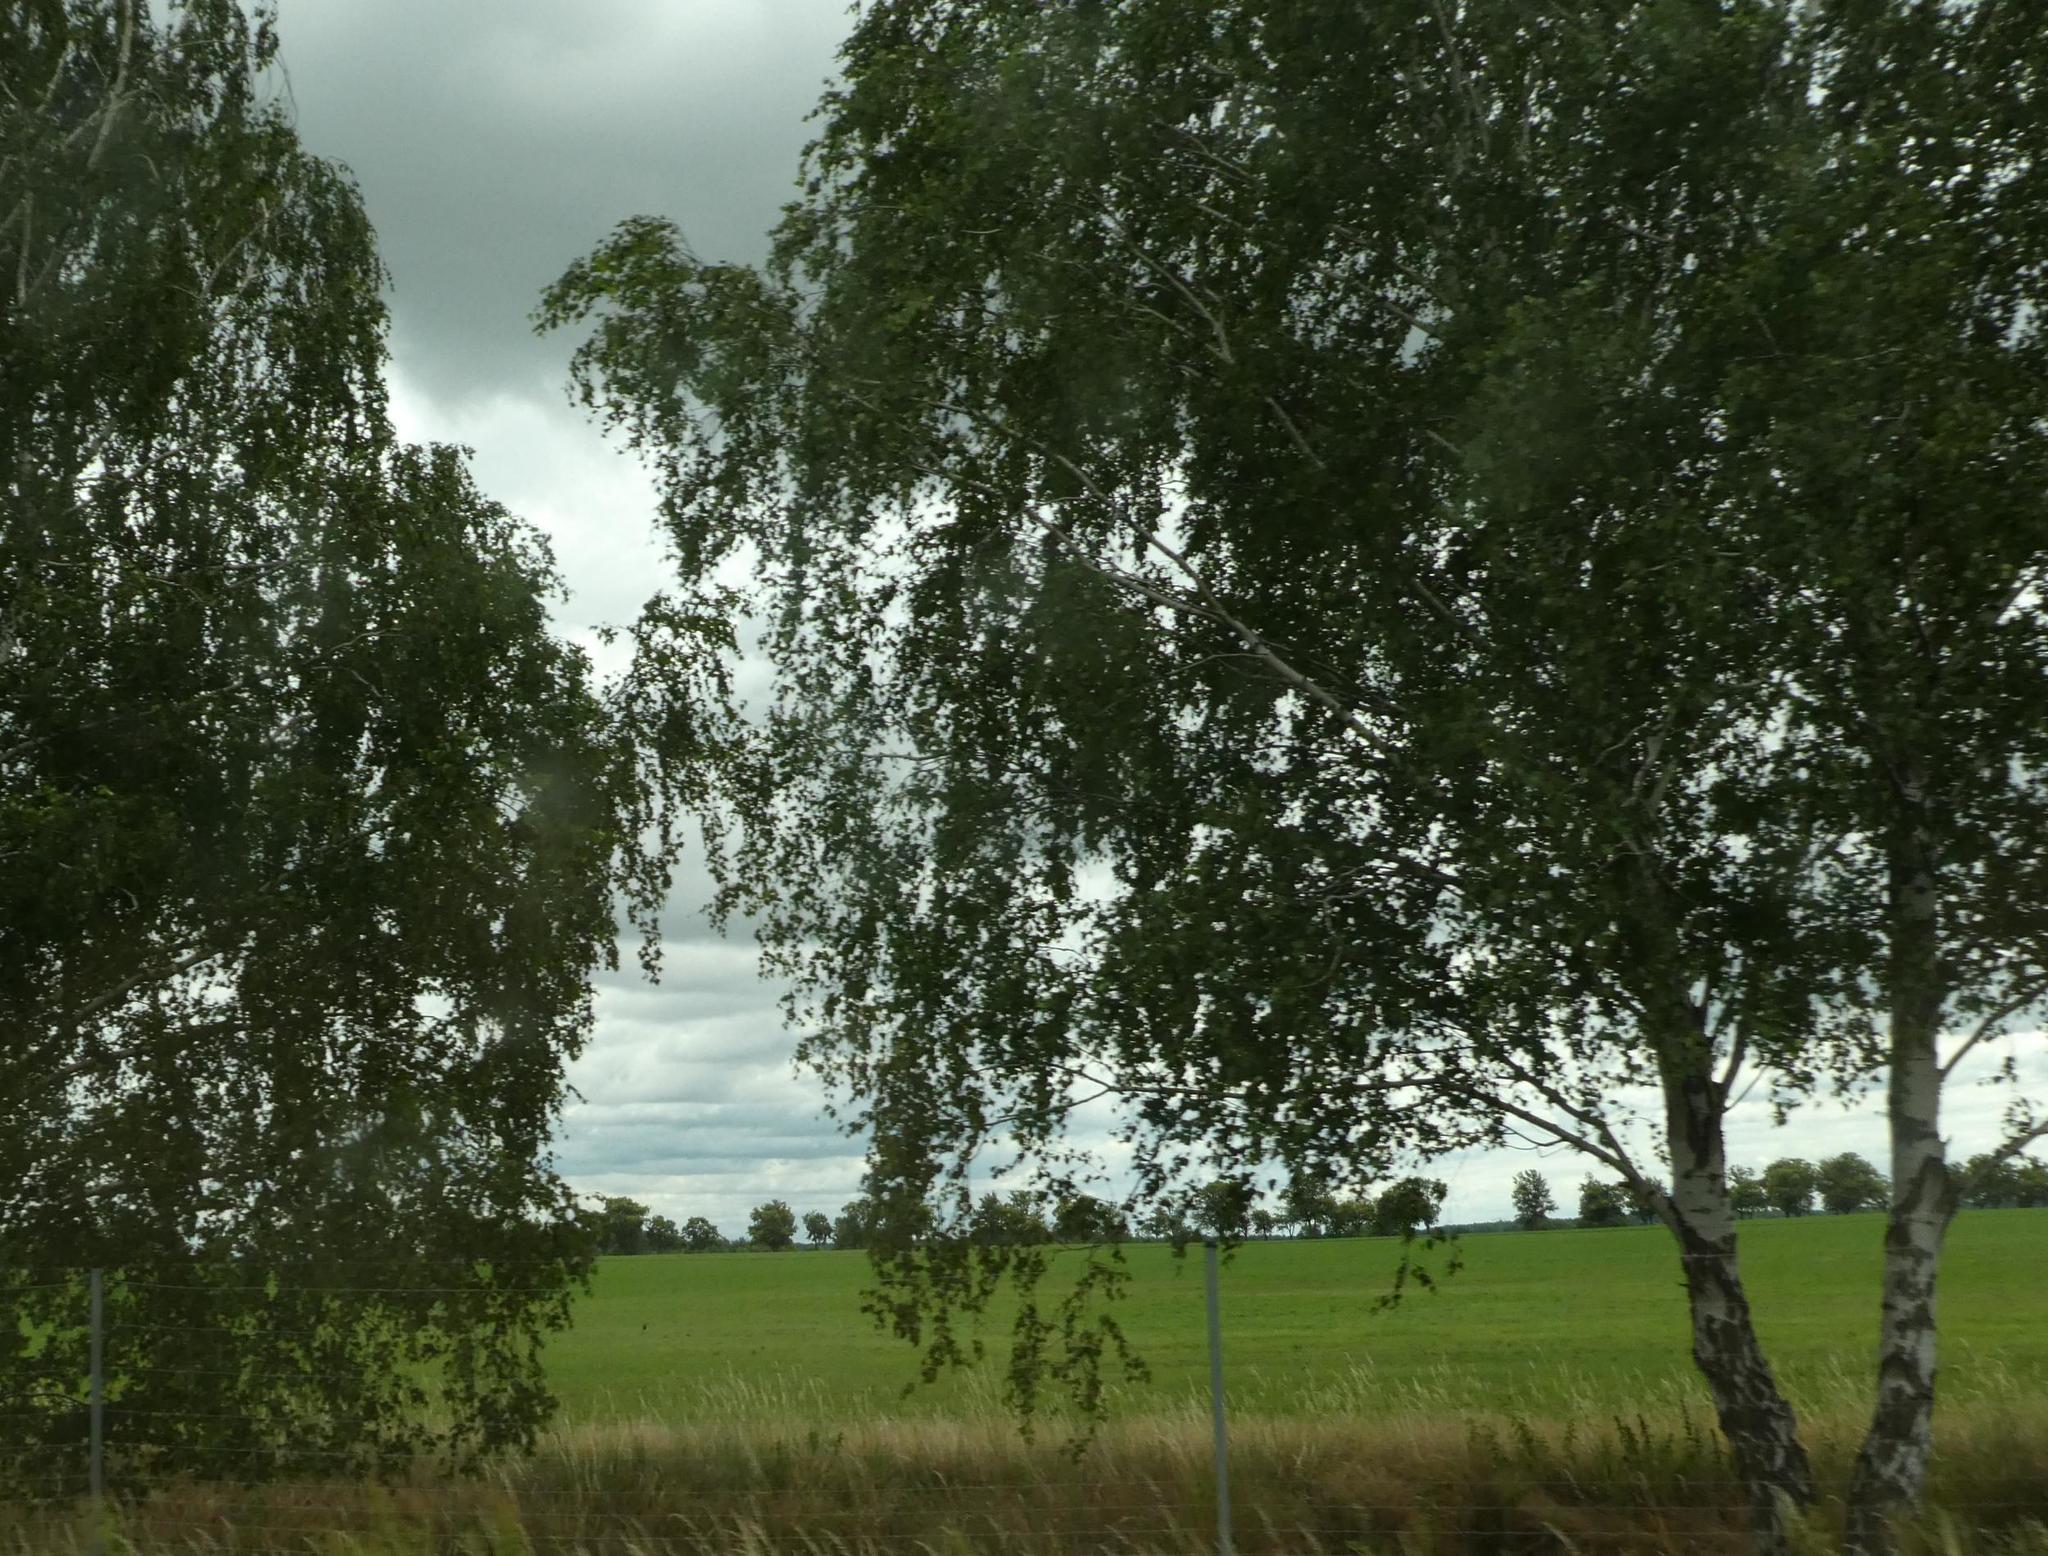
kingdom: Plantae
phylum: Tracheophyta
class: Magnoliopsida
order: Fagales
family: Betulaceae
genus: Betula
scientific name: Betula pendula
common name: Silver birch
